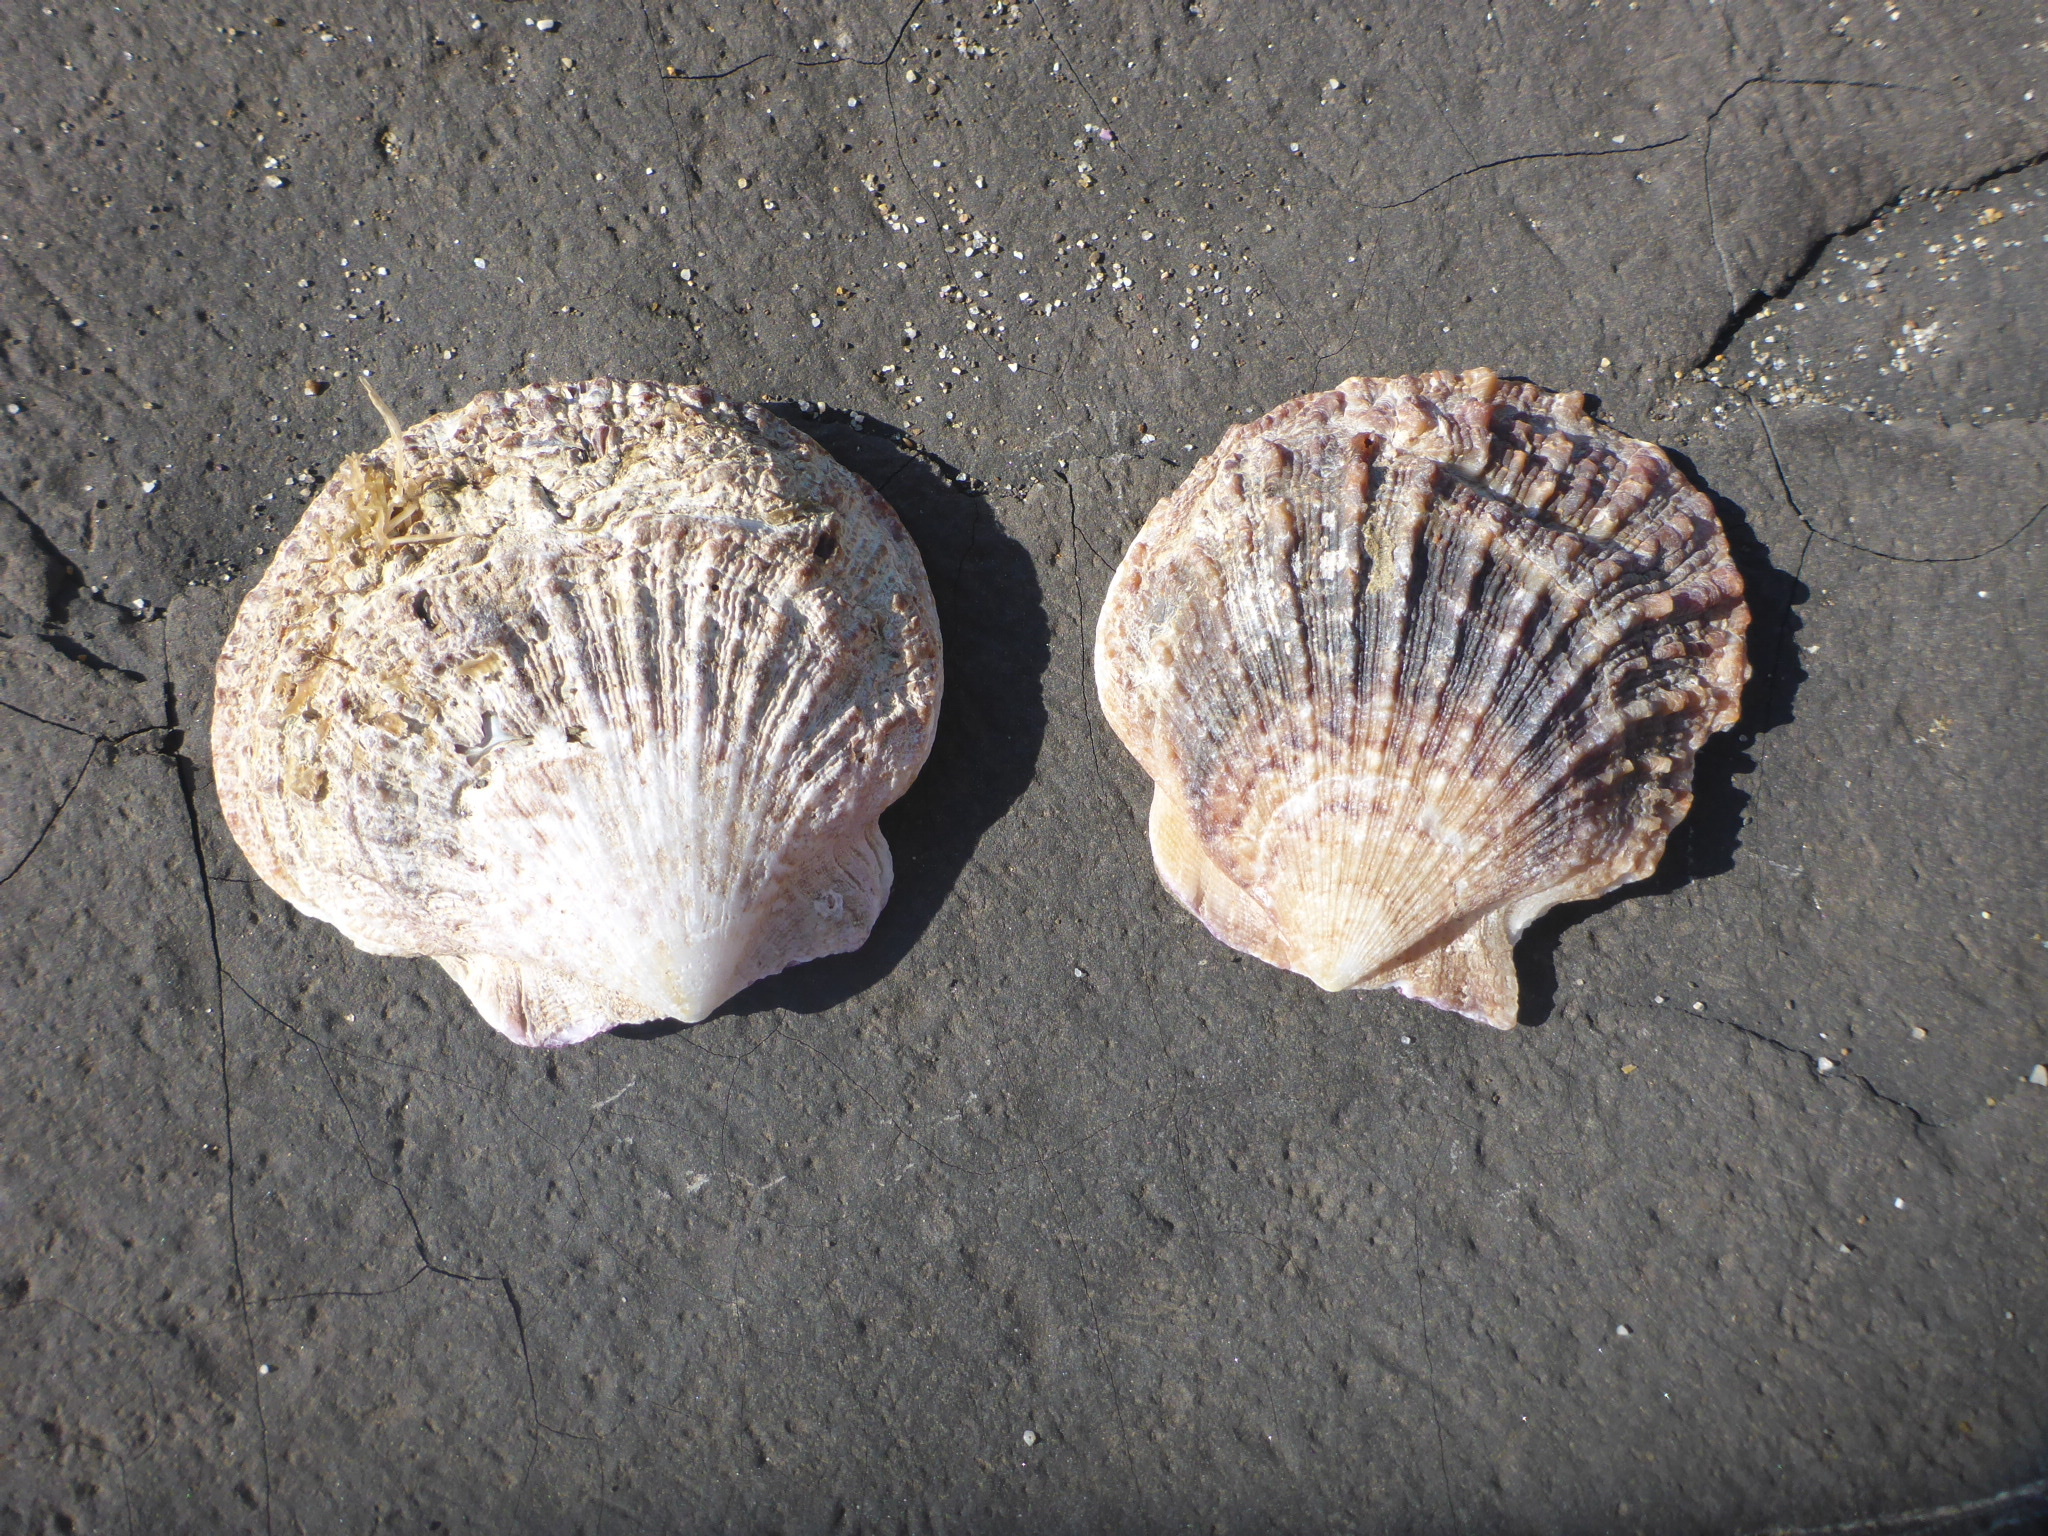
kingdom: Animalia
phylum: Mollusca
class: Bivalvia
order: Pectinida
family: Pectinidae
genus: Crassadoma
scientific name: Crassadoma gigantea
